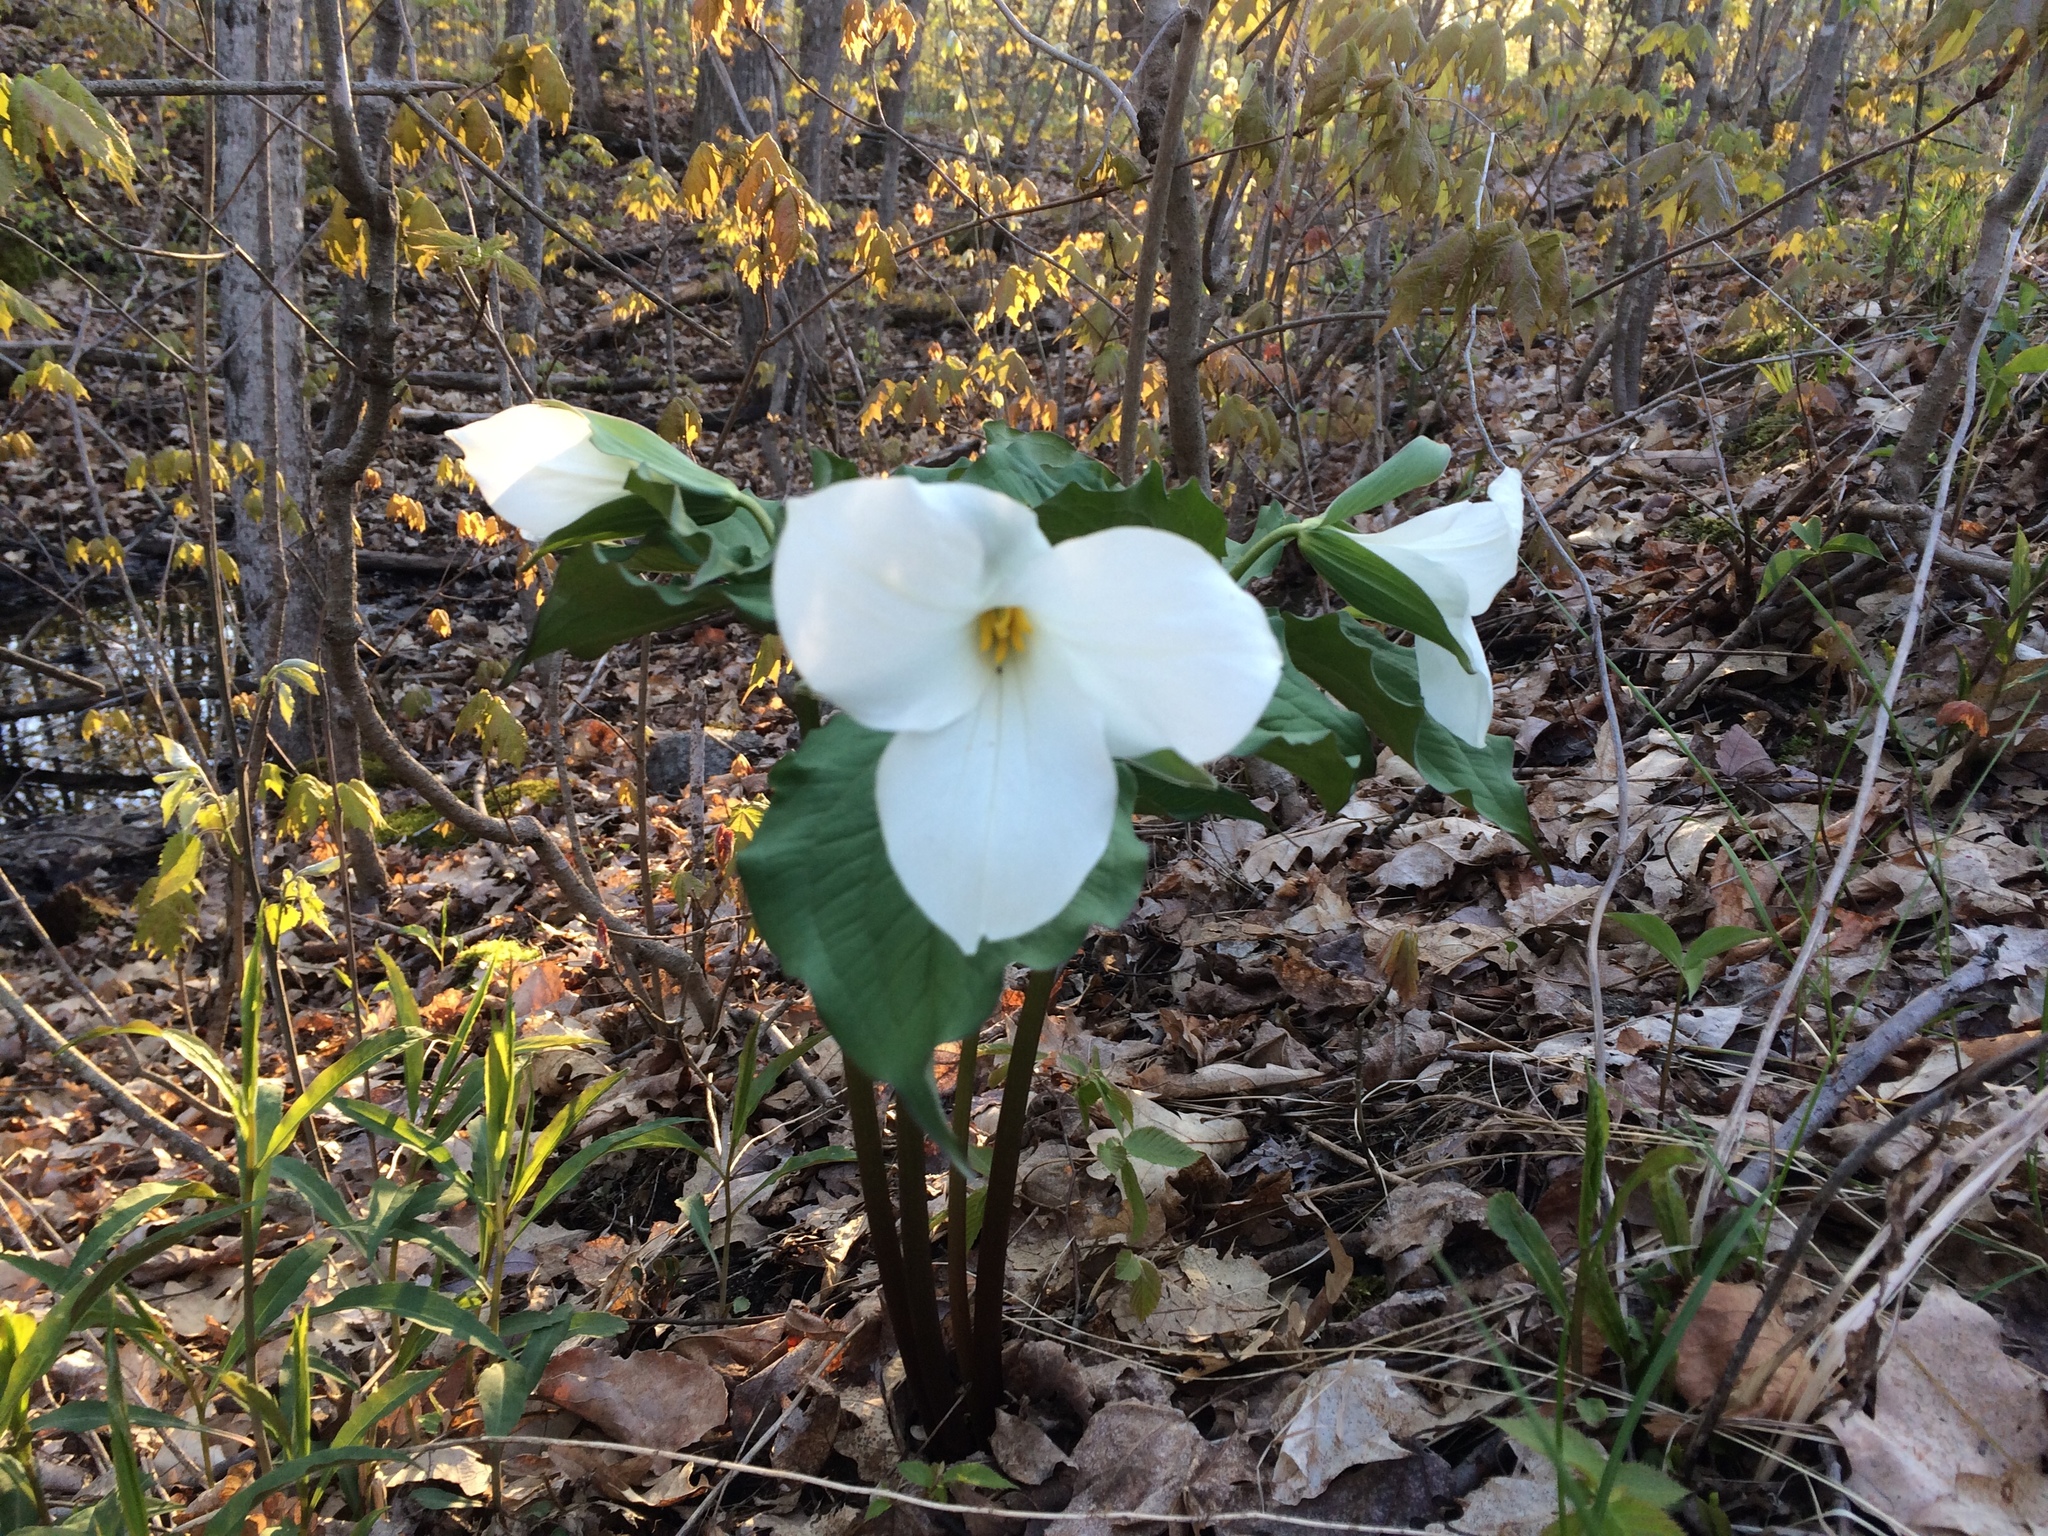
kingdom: Plantae
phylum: Tracheophyta
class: Liliopsida
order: Liliales
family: Melanthiaceae
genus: Trillium
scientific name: Trillium grandiflorum
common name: Great white trillium
